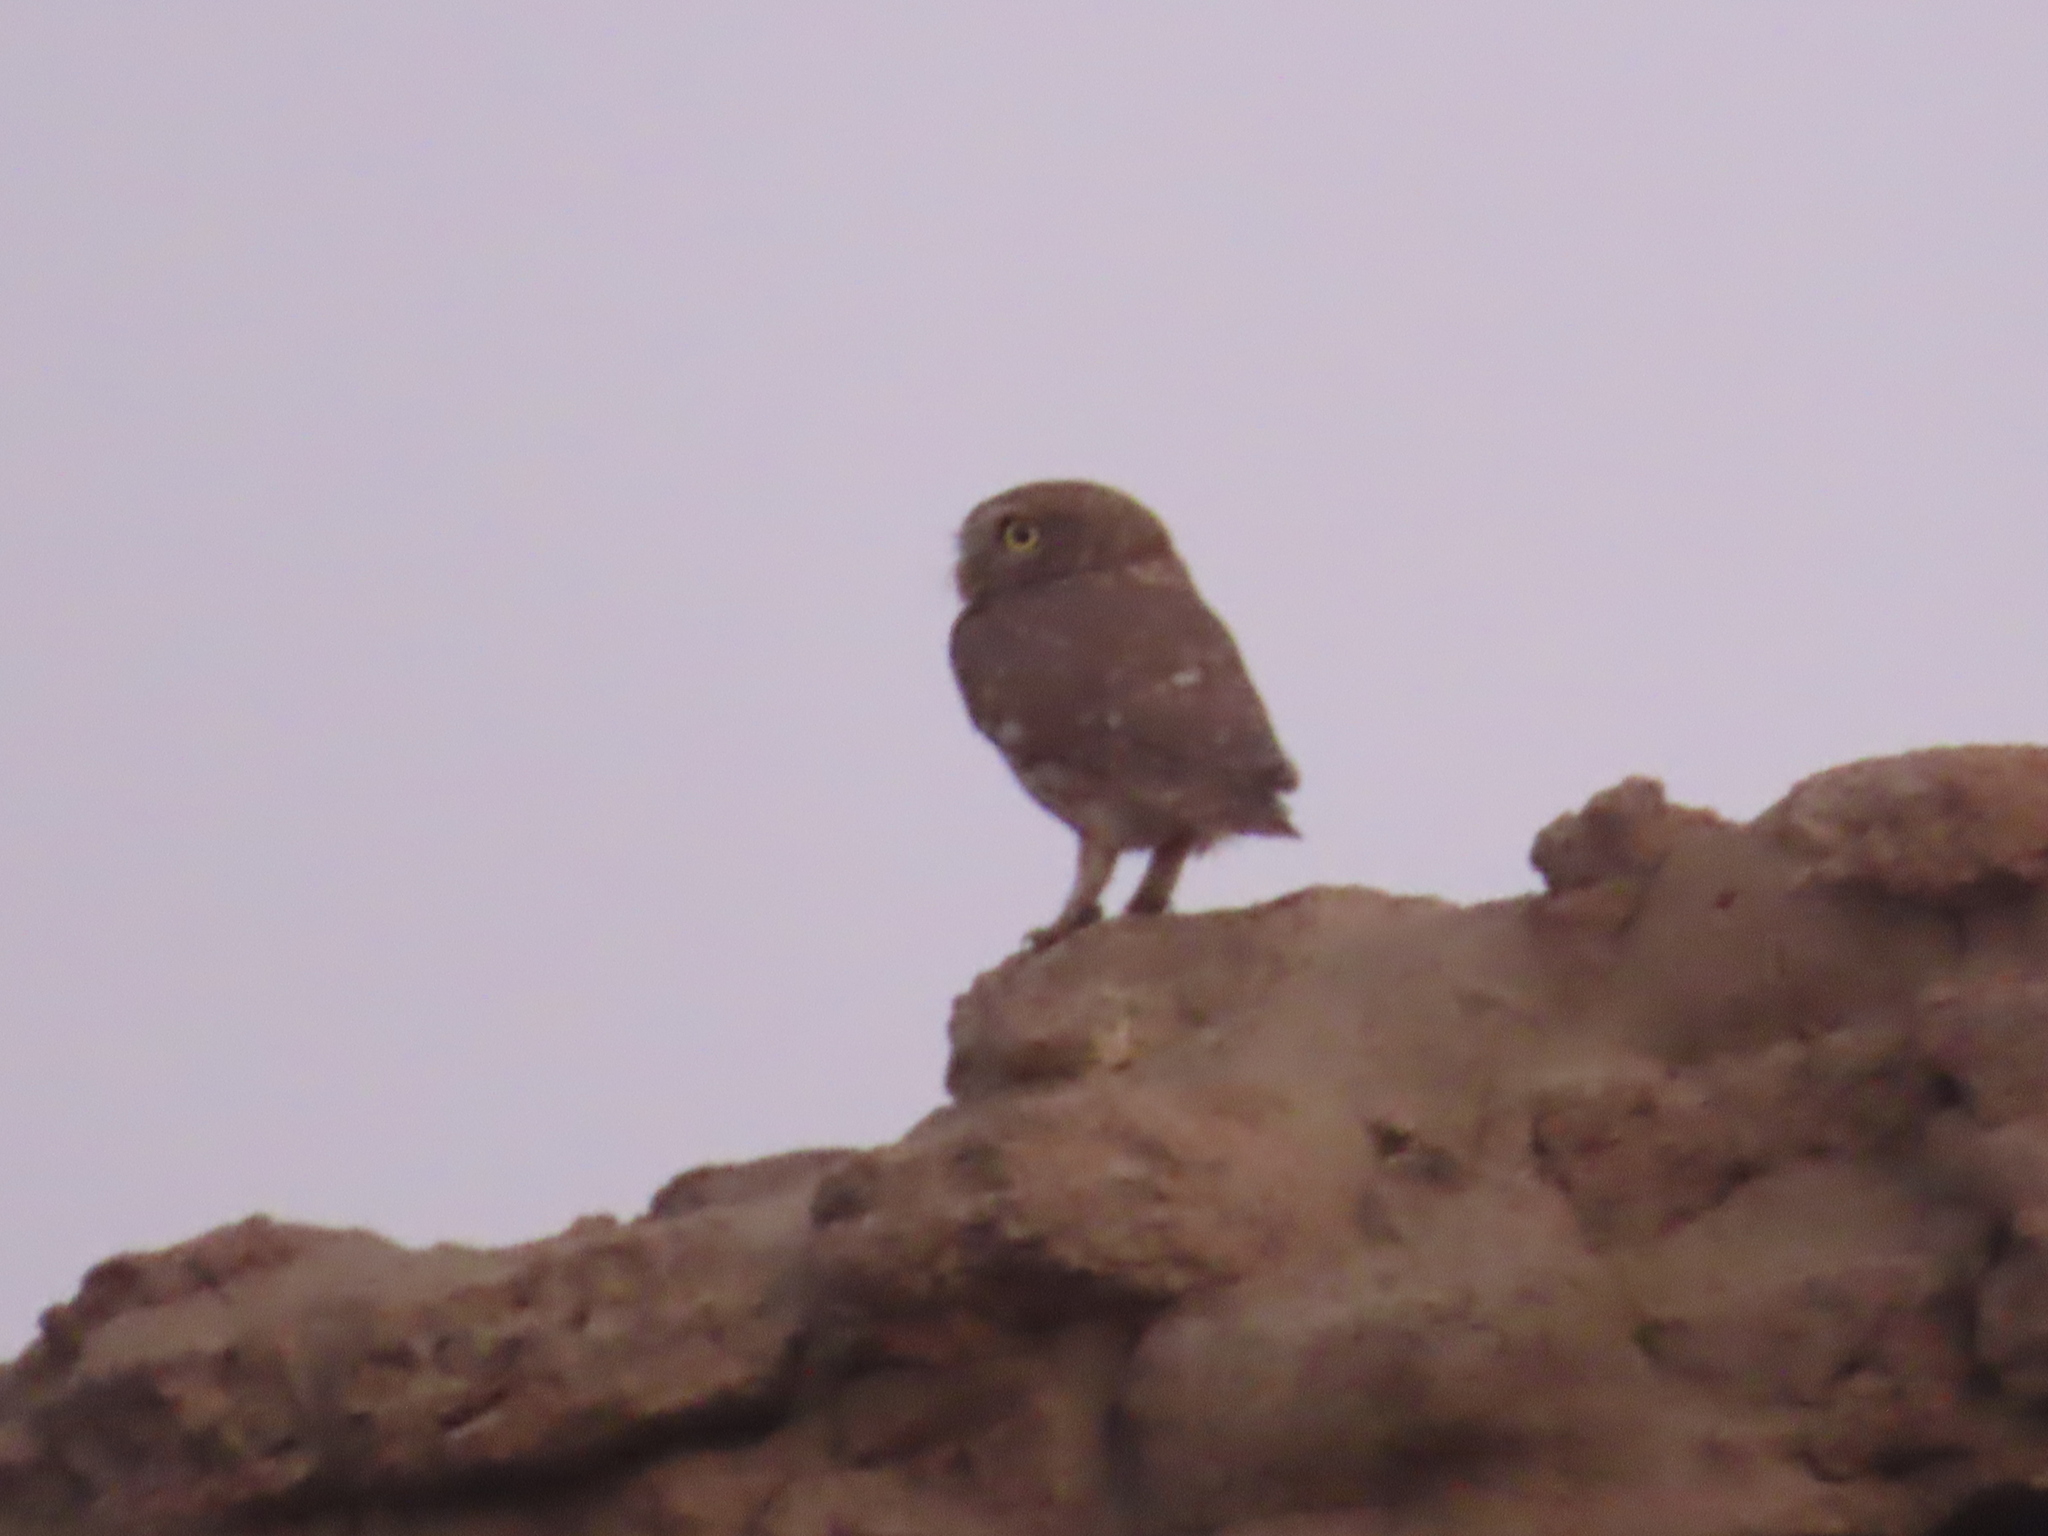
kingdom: Animalia
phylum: Chordata
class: Aves
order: Strigiformes
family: Strigidae
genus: Athene
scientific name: Athene noctua
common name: Little owl
